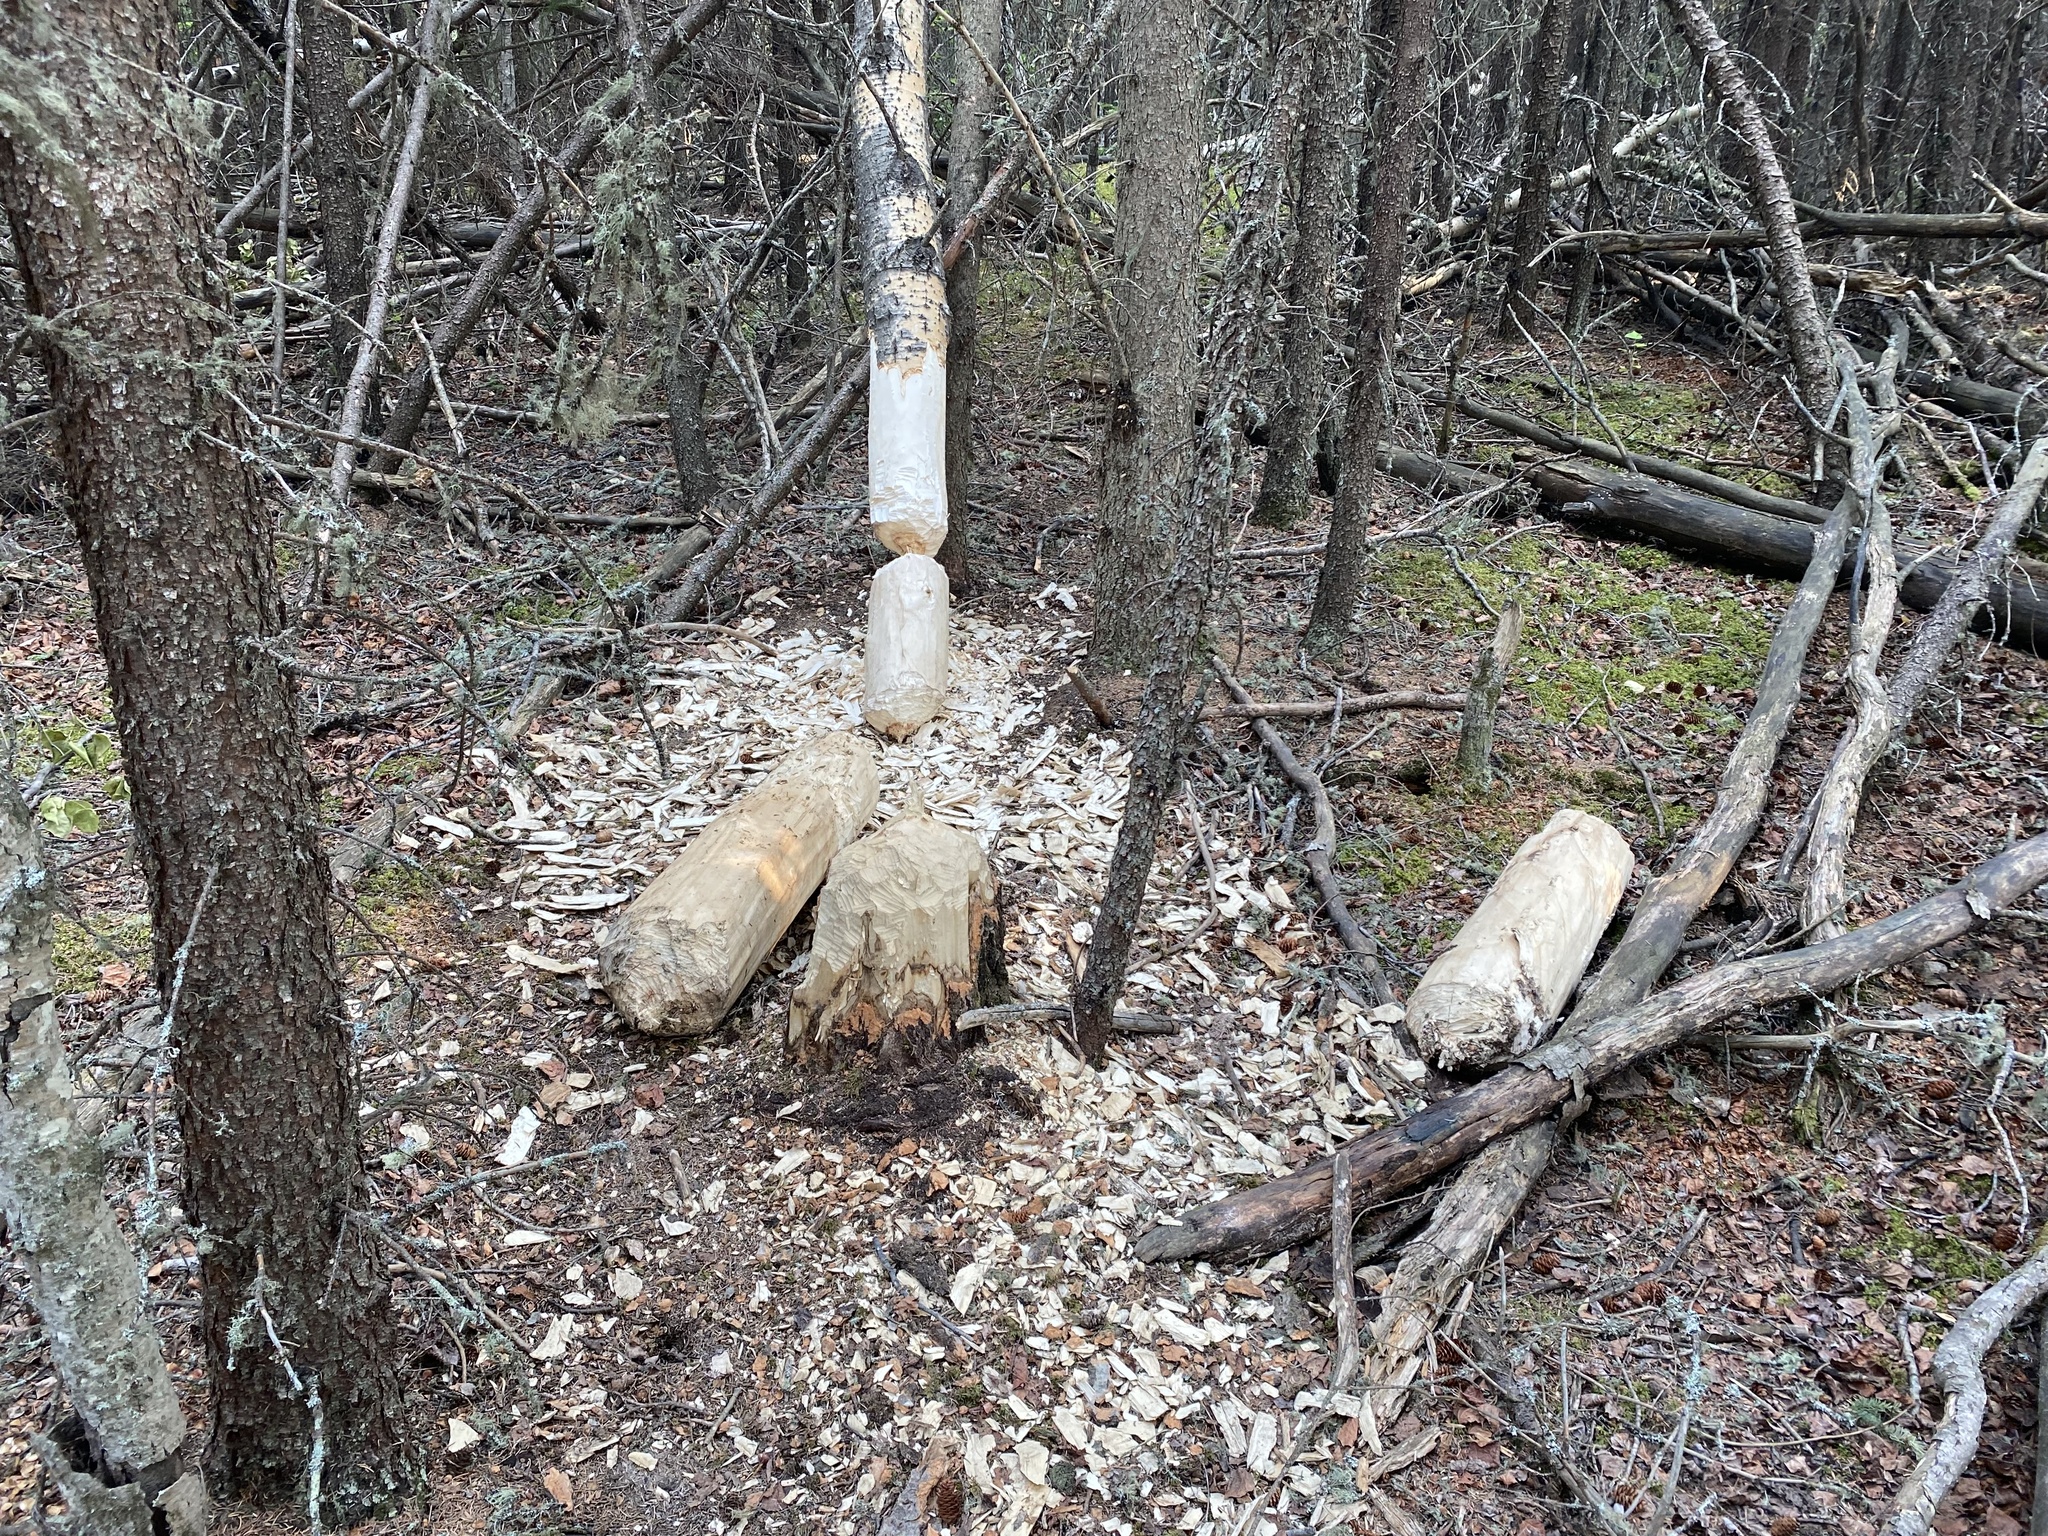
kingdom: Animalia
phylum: Chordata
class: Mammalia
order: Rodentia
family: Castoridae
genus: Castor
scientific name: Castor canadensis
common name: American beaver
